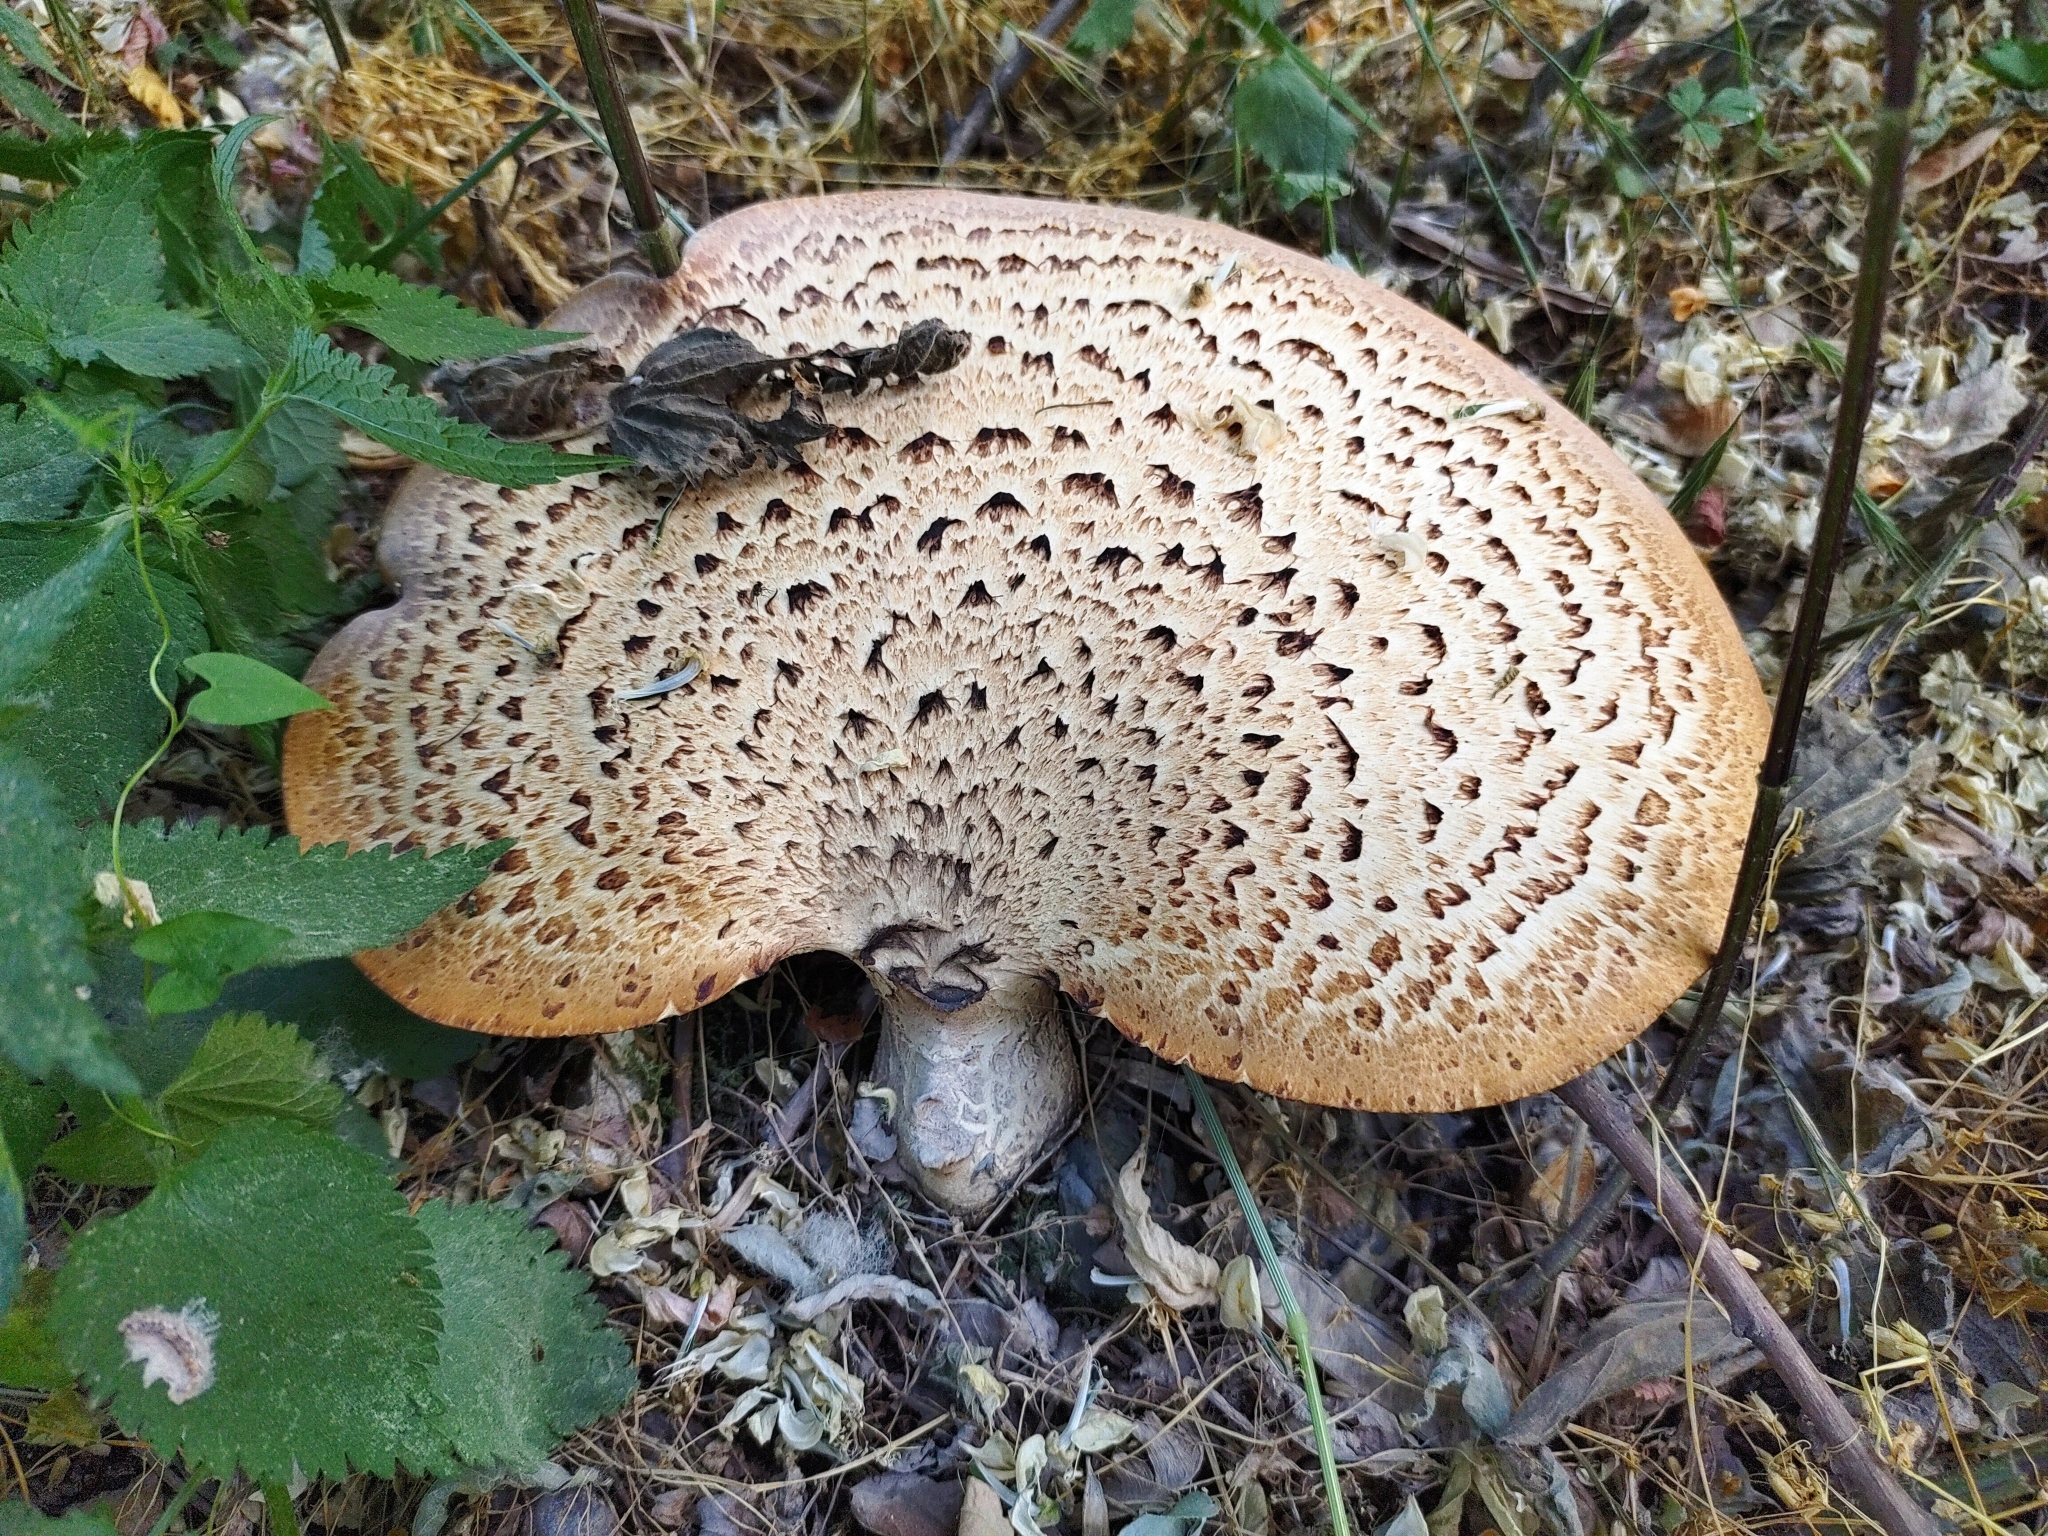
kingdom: Fungi
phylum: Basidiomycota
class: Agaricomycetes
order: Polyporales
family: Polyporaceae
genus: Cerioporus
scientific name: Cerioporus squamosus
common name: Dryad's saddle
